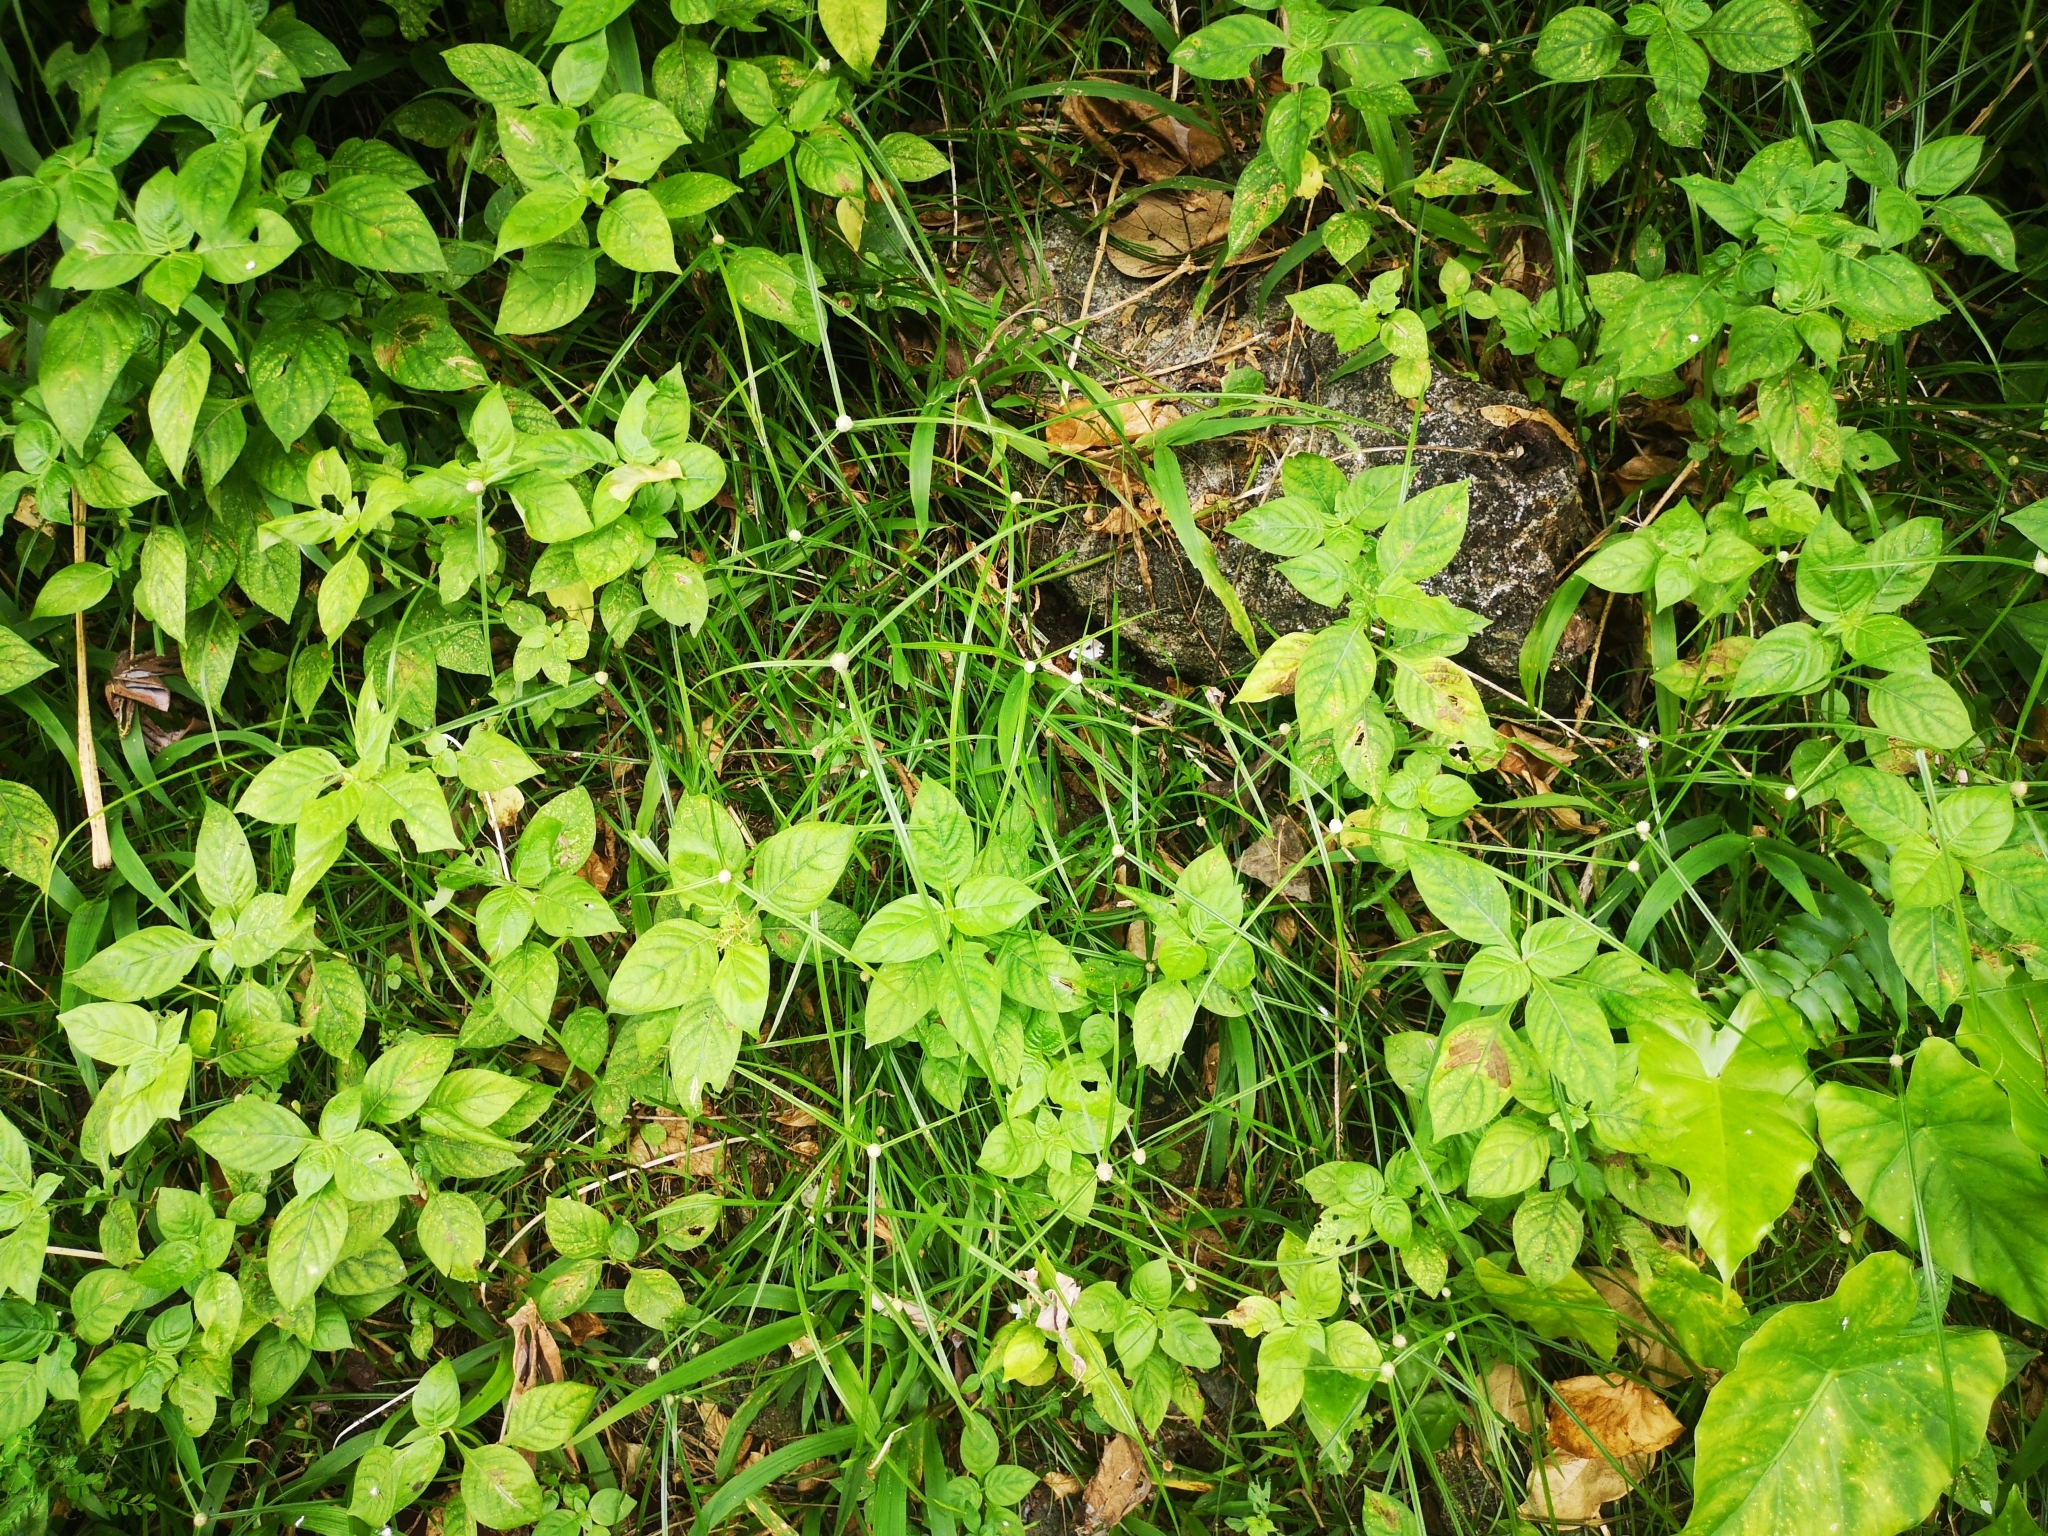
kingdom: Plantae
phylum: Tracheophyta
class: Liliopsida
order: Poales
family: Cyperaceae
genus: Cyperus
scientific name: Cyperus mindorensis
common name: Flatsedge
